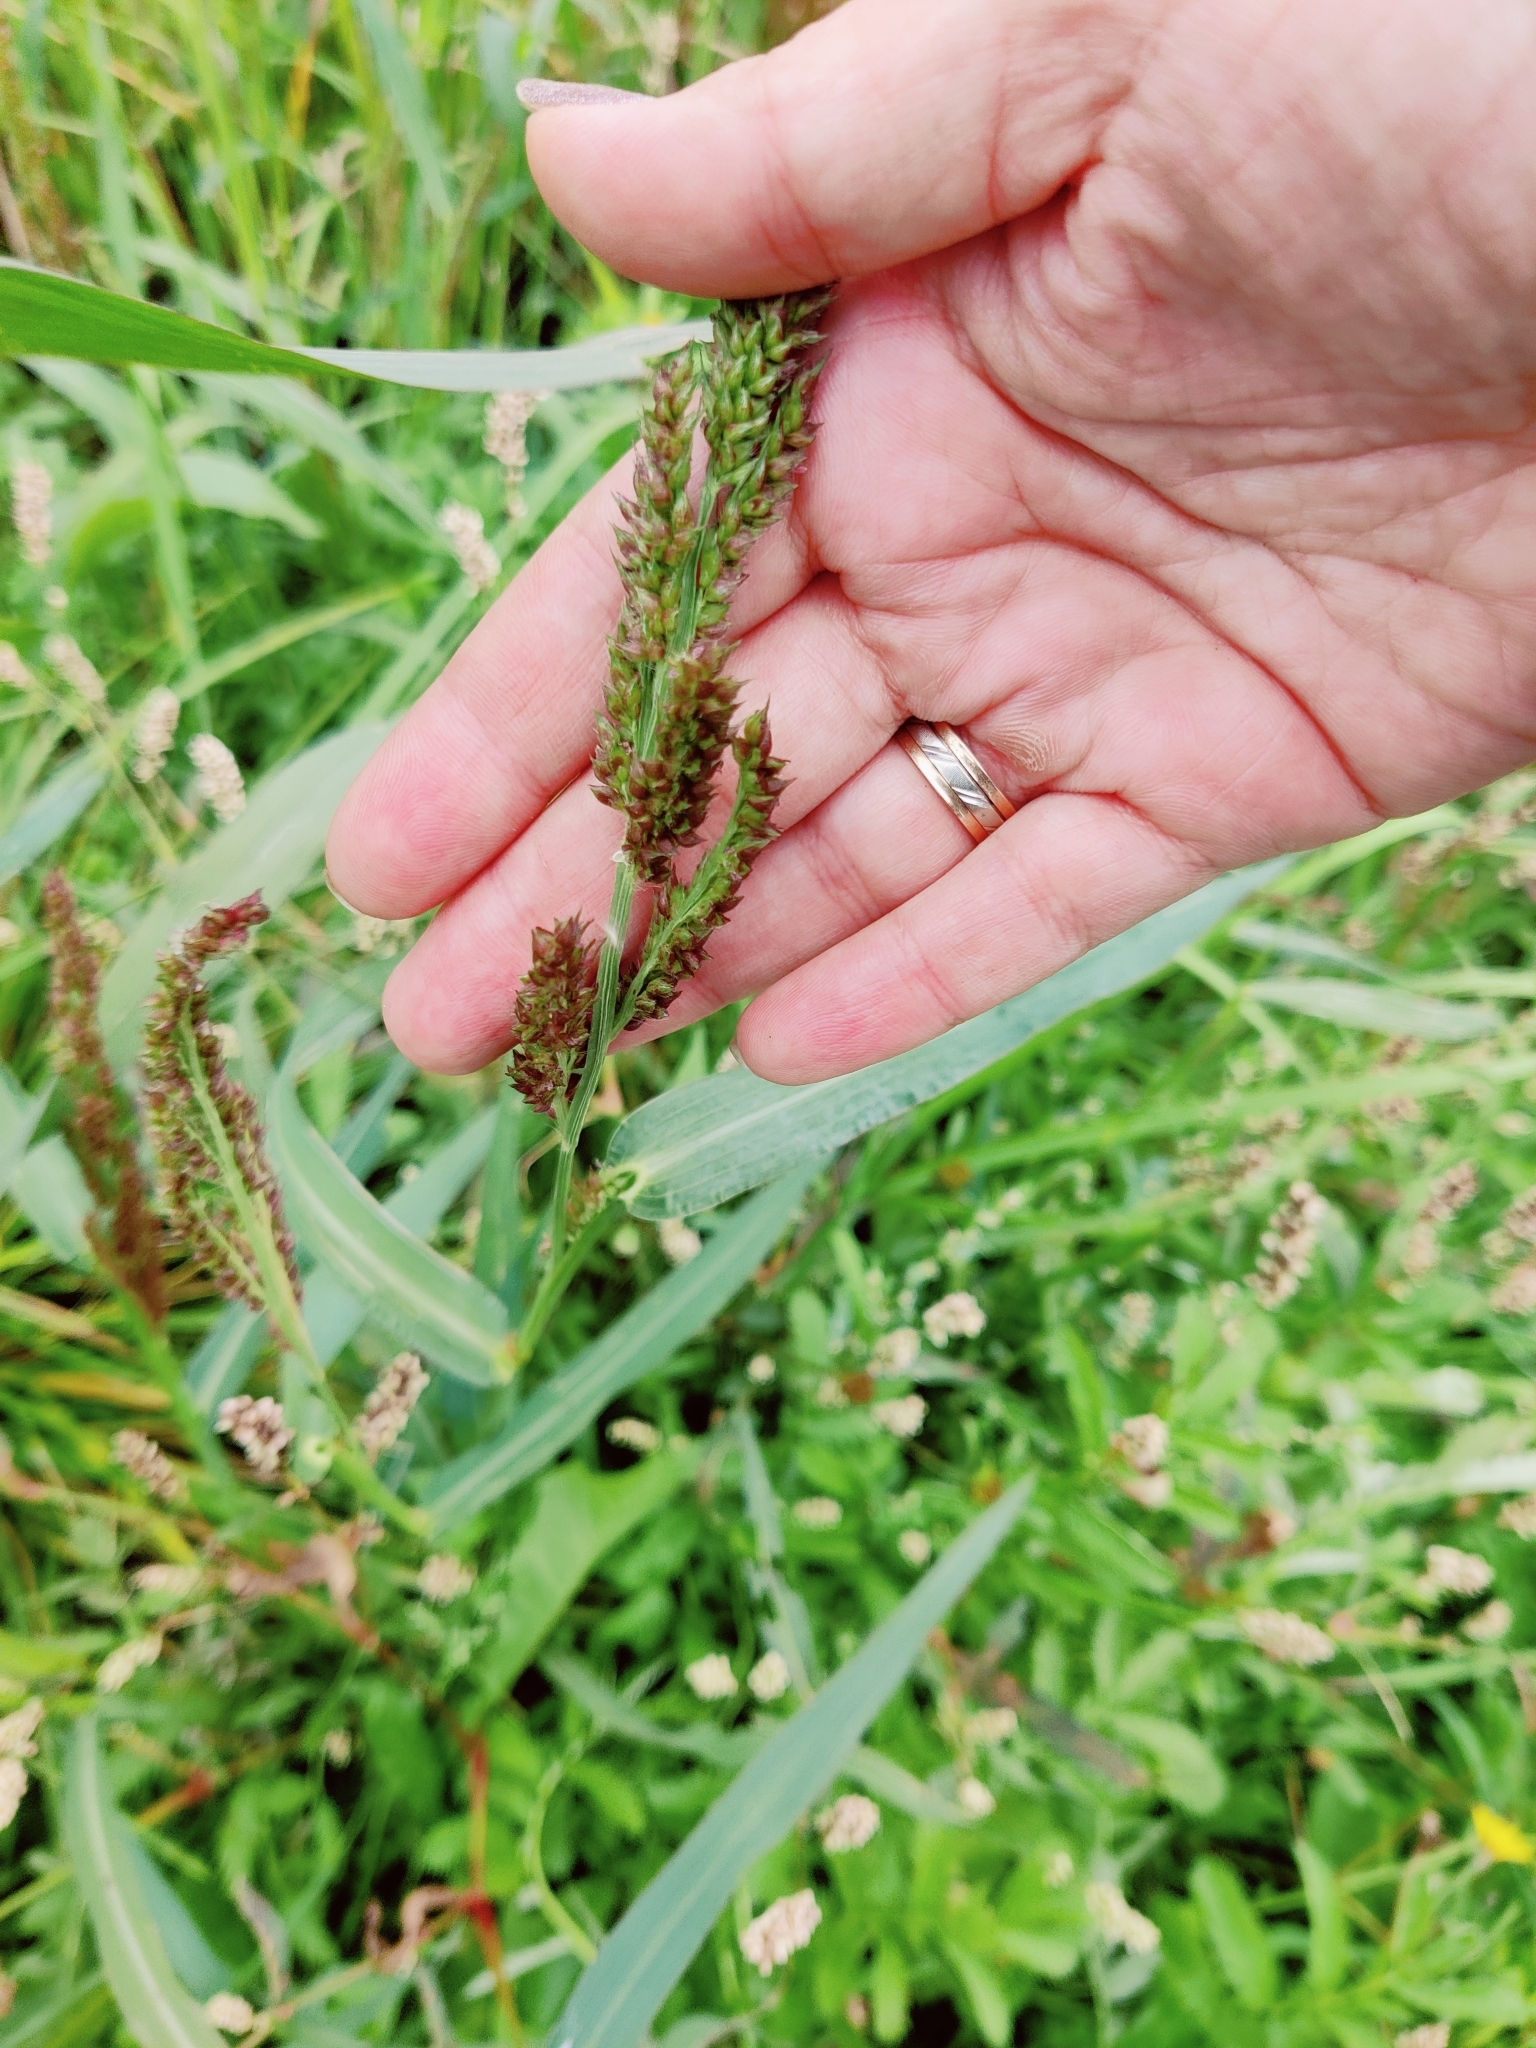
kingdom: Plantae
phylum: Tracheophyta
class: Liliopsida
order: Poales
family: Poaceae
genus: Echinochloa
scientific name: Echinochloa crus-galli
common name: Cockspur
